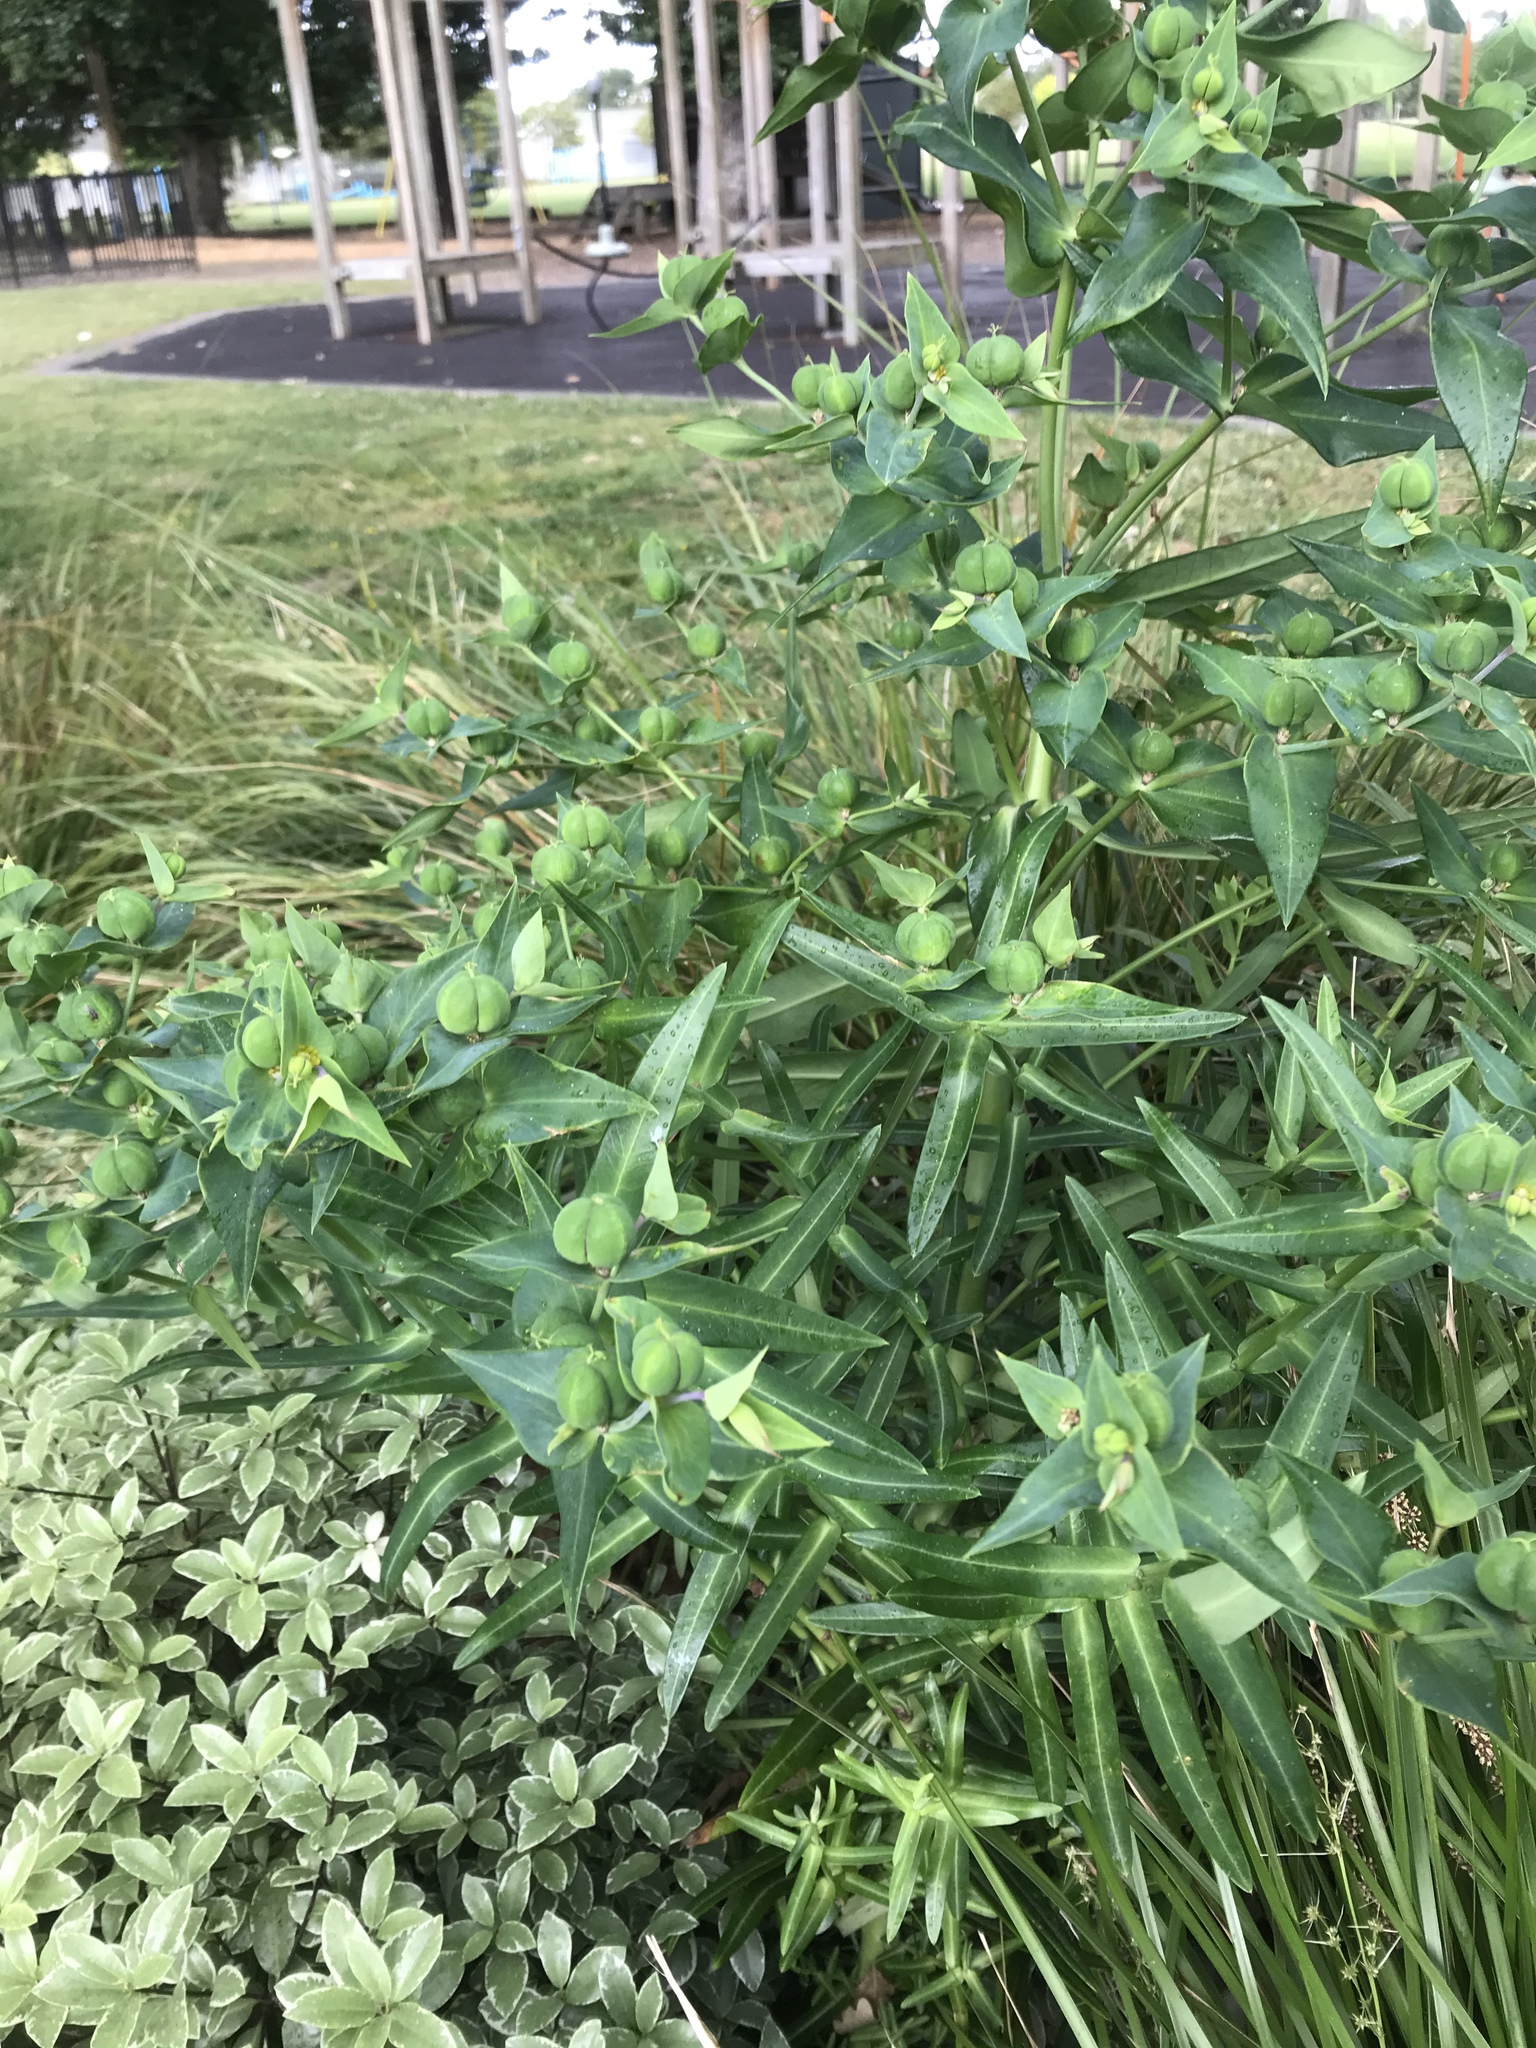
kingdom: Plantae
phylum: Tracheophyta
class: Magnoliopsida
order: Malpighiales
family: Euphorbiaceae
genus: Euphorbia
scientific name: Euphorbia lathyris
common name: Caper spurge
